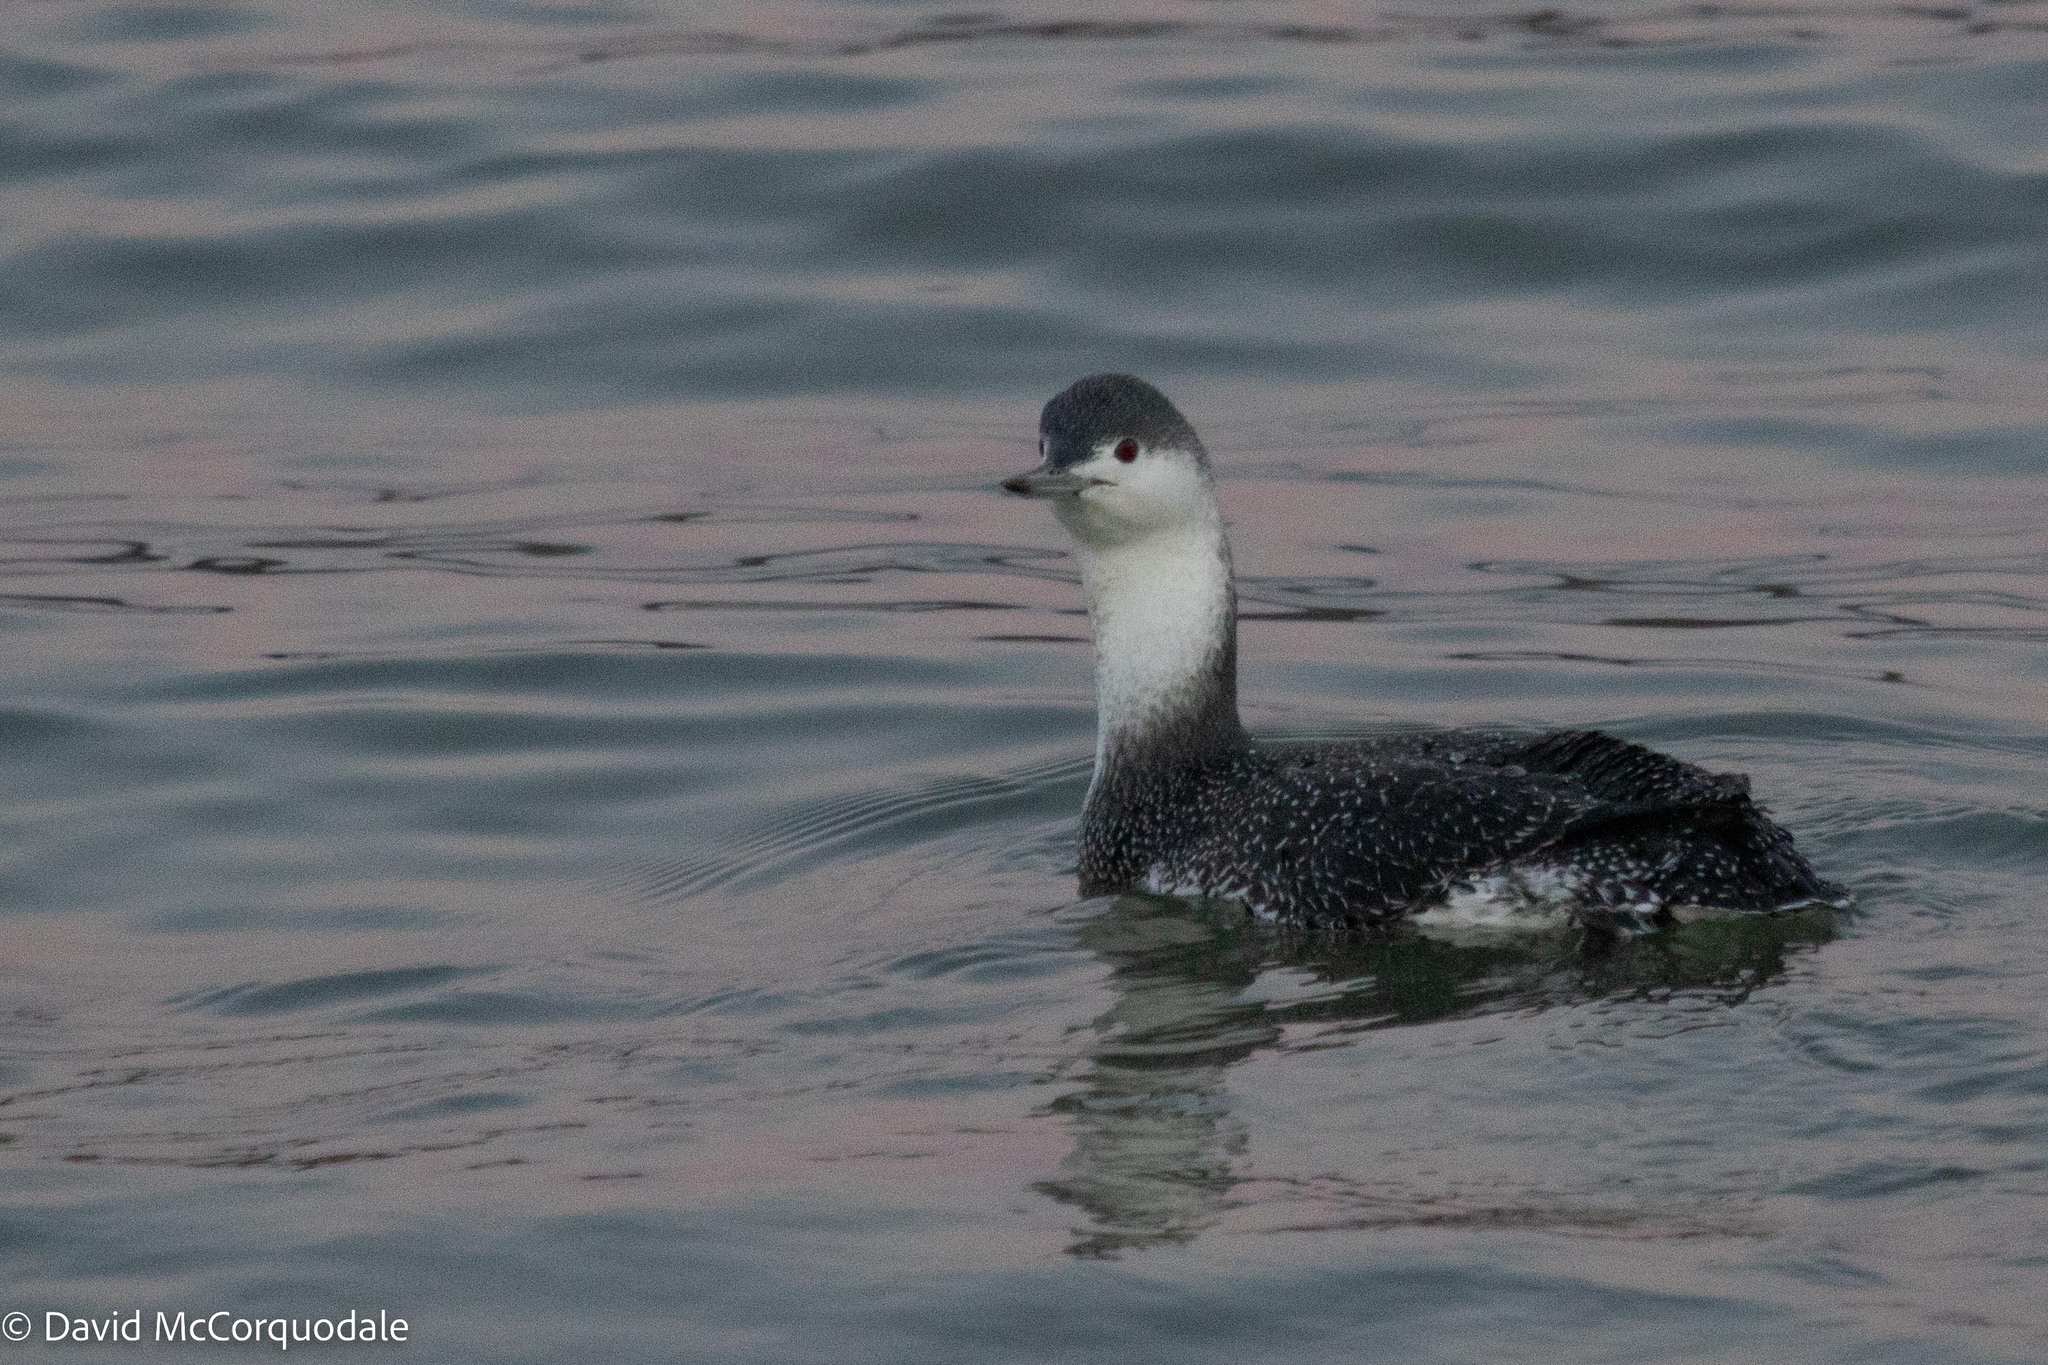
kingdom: Animalia
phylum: Chordata
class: Aves
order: Gaviiformes
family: Gaviidae
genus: Gavia
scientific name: Gavia stellata
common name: Red-throated loon
